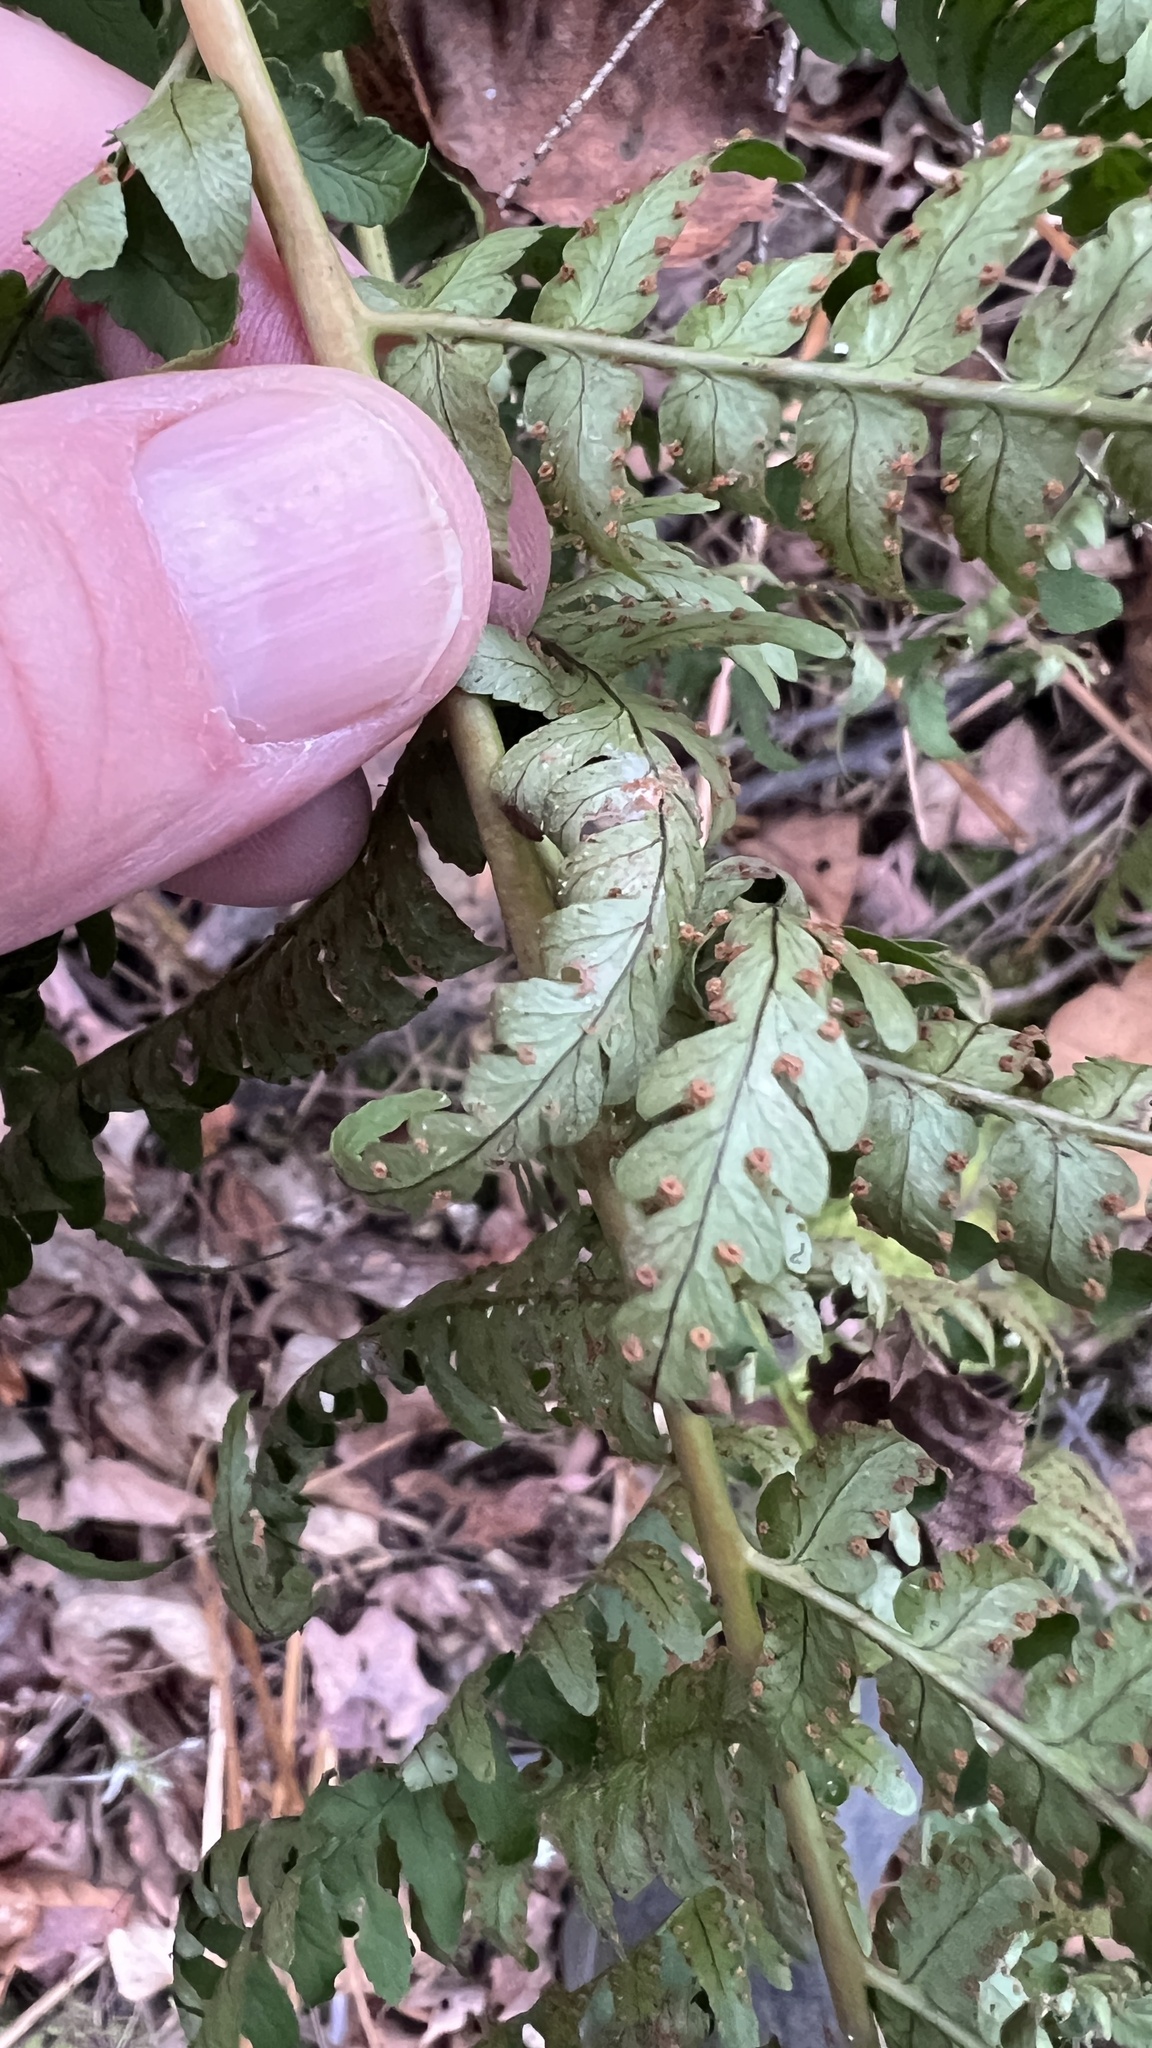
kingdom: Plantae
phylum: Tracheophyta
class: Polypodiopsida
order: Polypodiales
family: Dryopteridaceae
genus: Dryopteris
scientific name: Dryopteris marginalis
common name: Marginal wood fern
